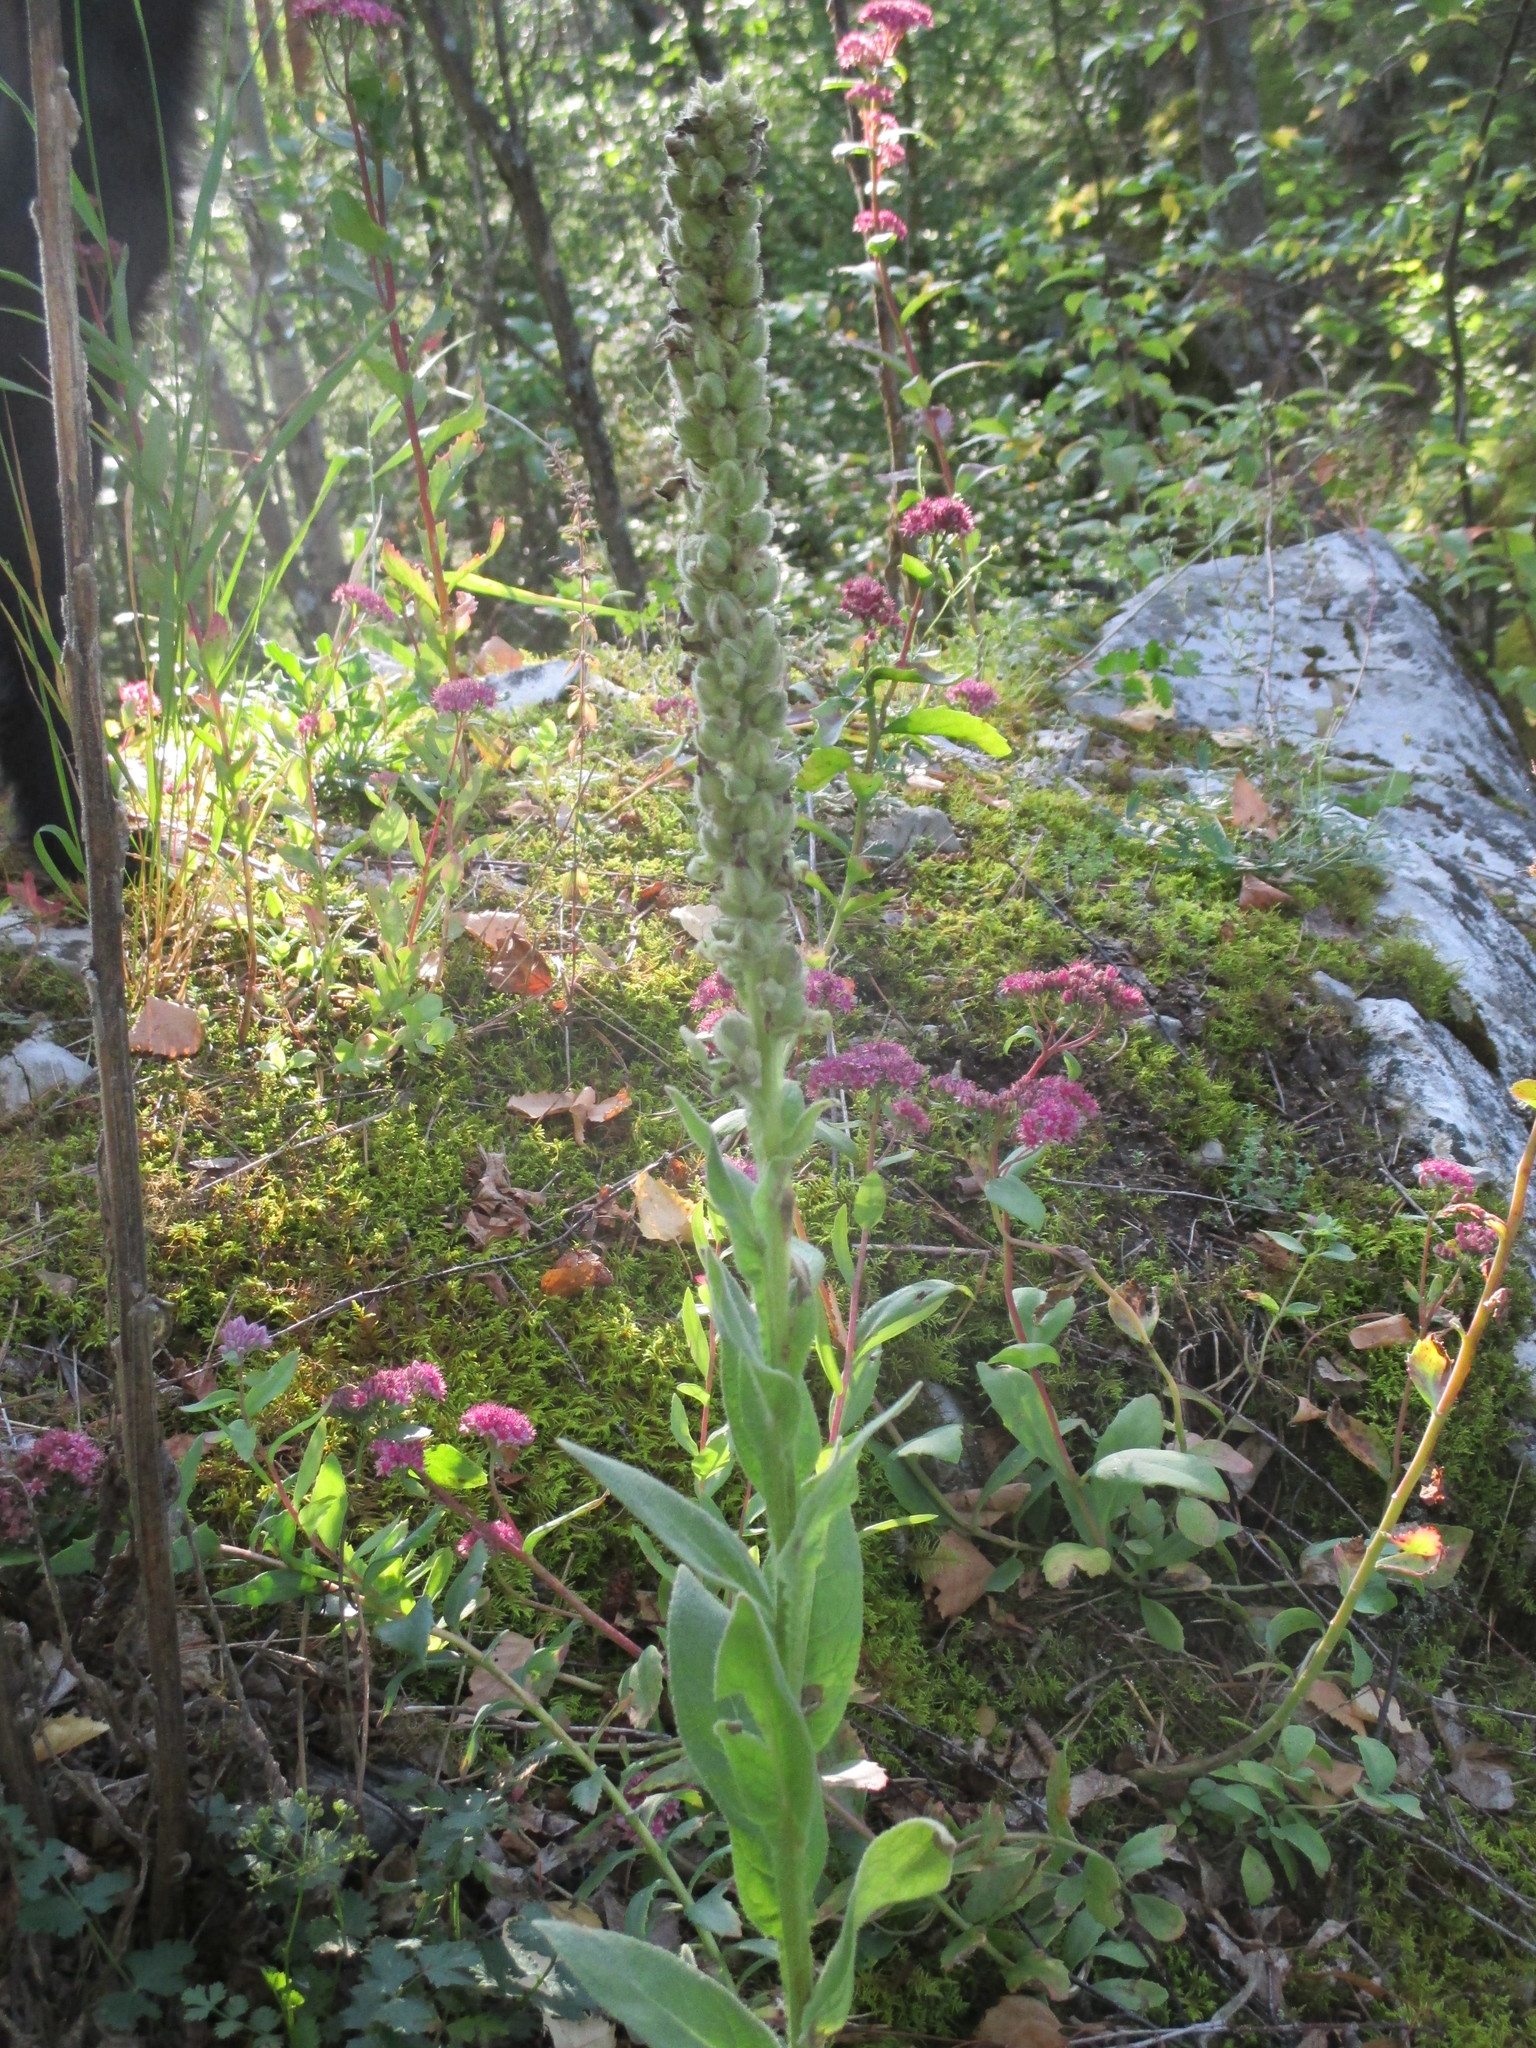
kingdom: Plantae
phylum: Tracheophyta
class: Magnoliopsida
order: Lamiales
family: Scrophulariaceae
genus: Verbascum
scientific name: Verbascum thapsus
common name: Common mullein
